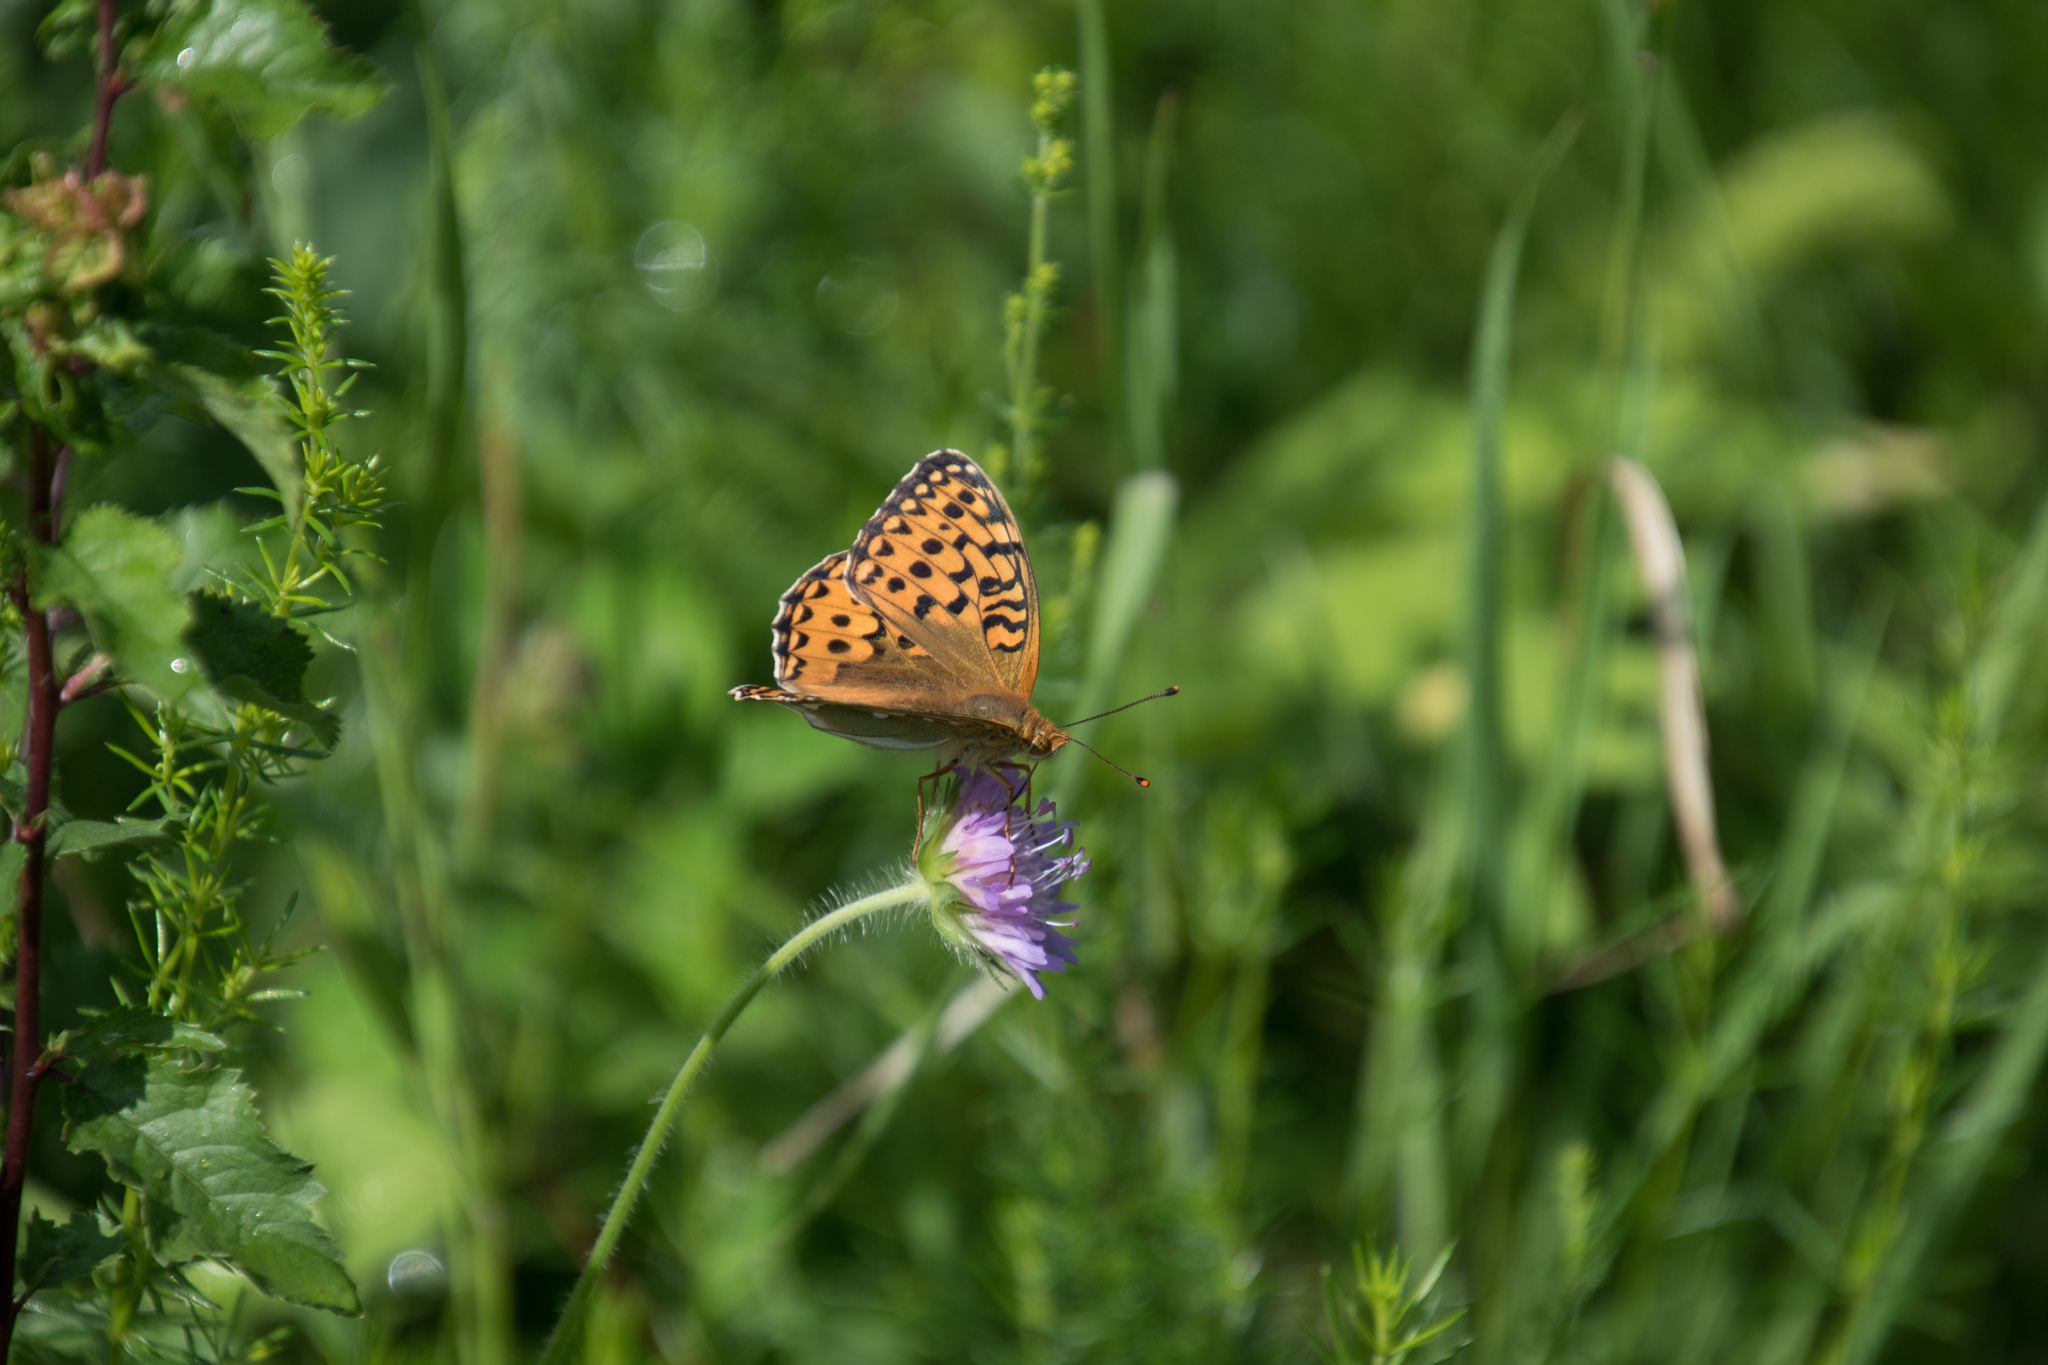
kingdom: Animalia
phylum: Arthropoda
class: Insecta
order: Lepidoptera
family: Nymphalidae
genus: Speyeria
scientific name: Speyeria aglaja
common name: Dark green fritillary
